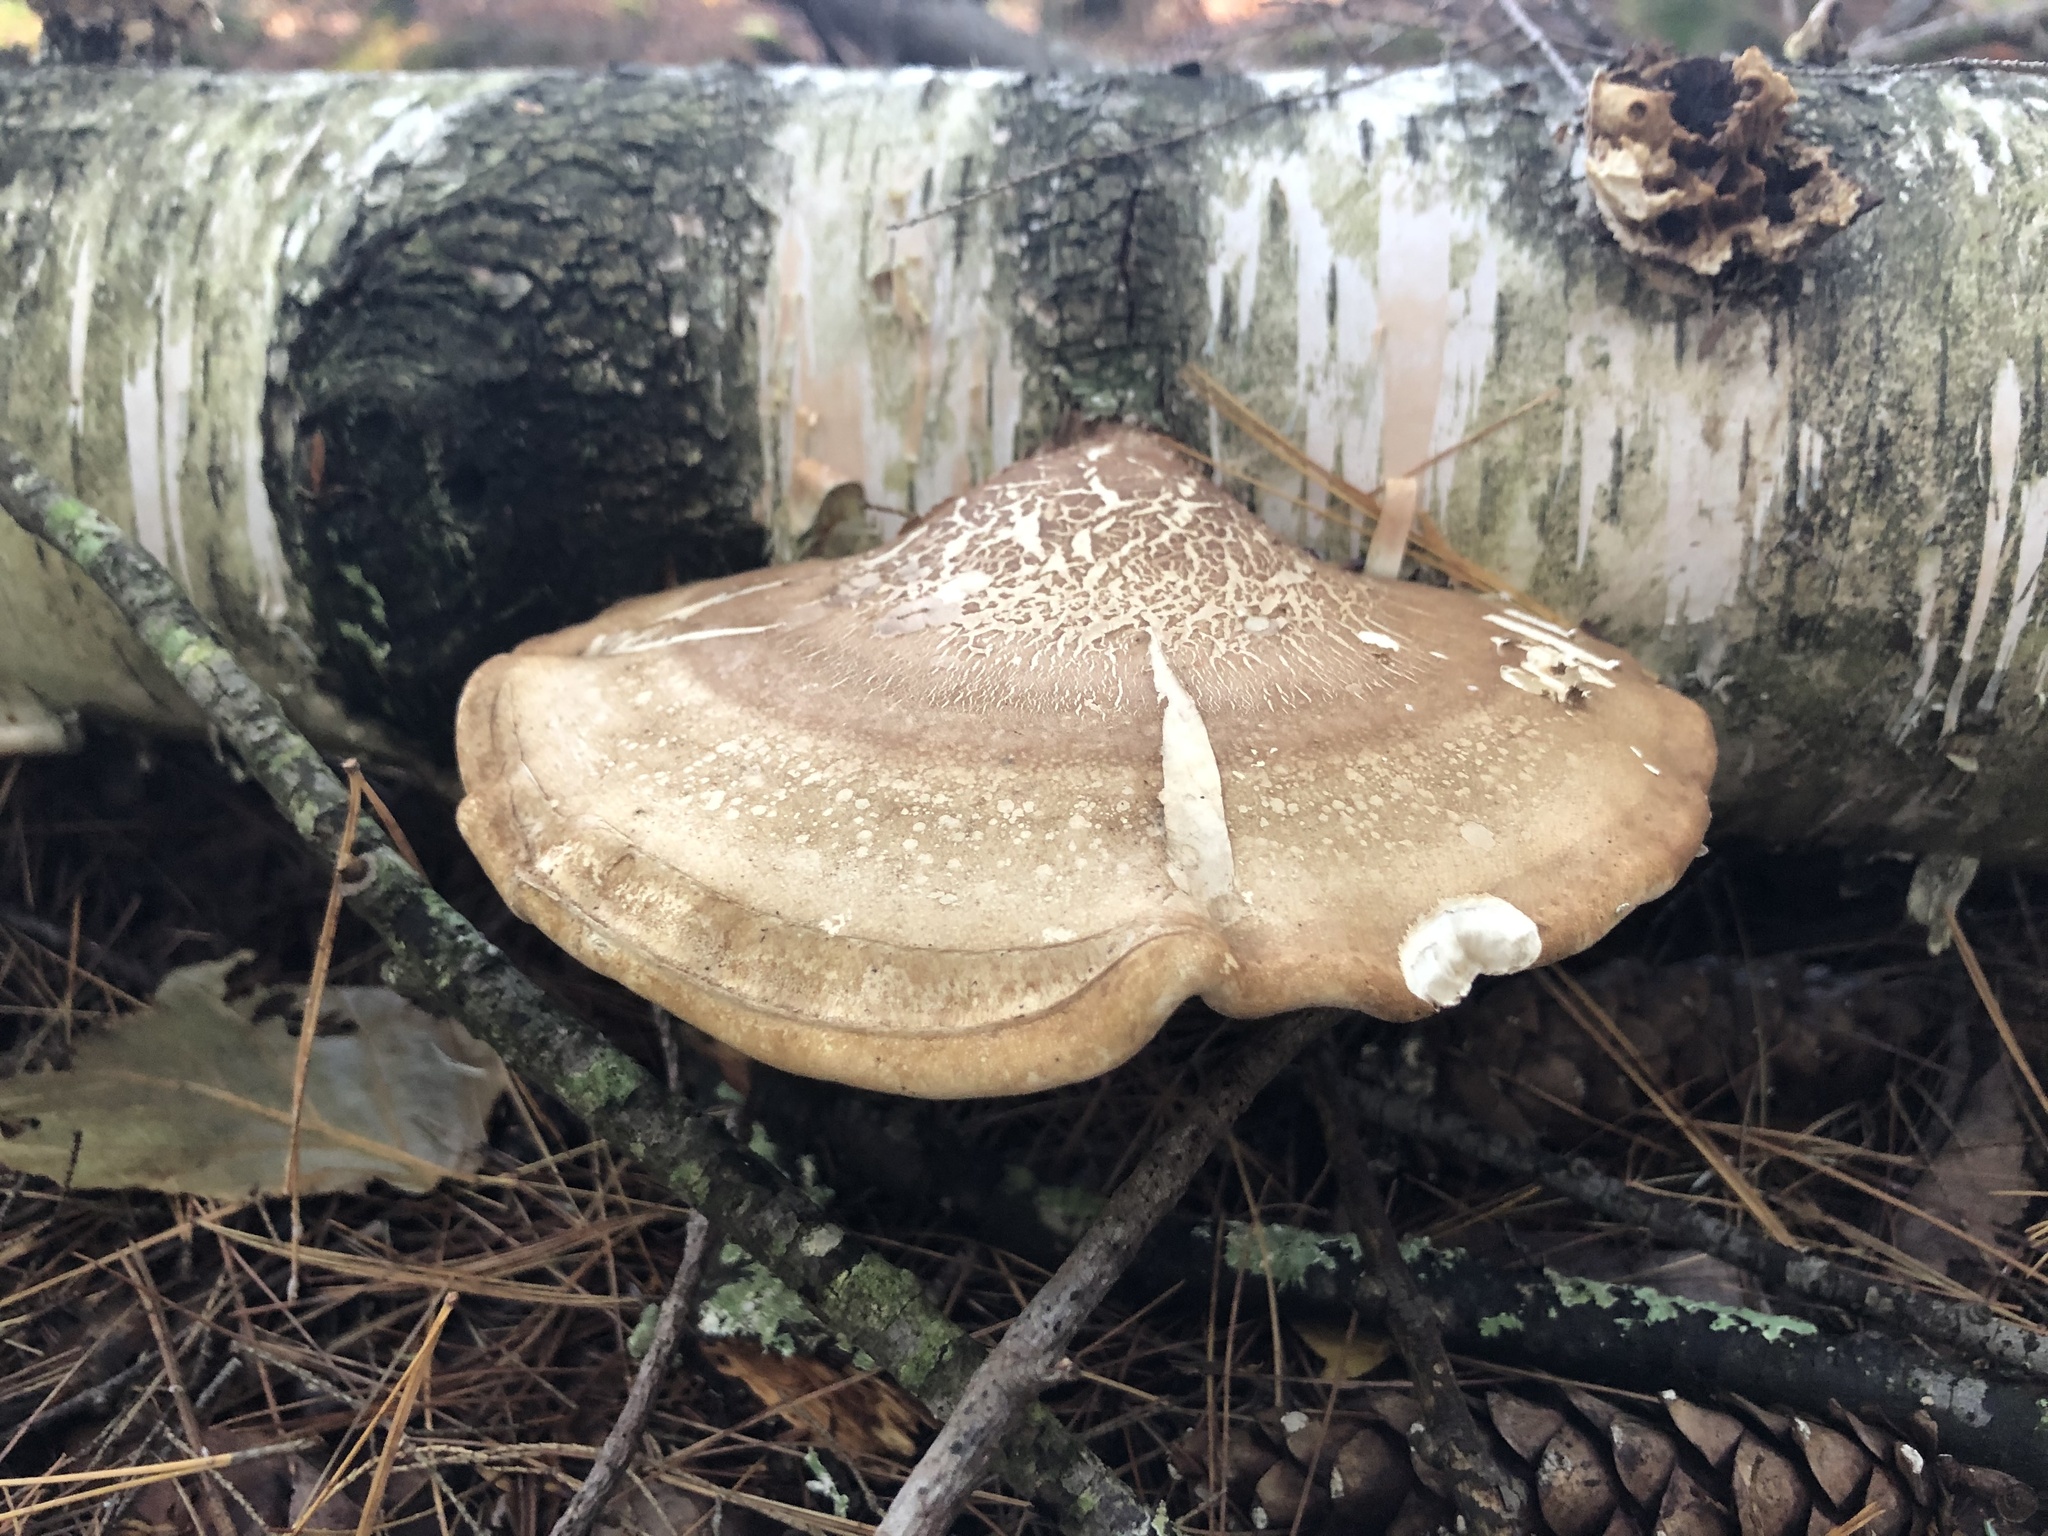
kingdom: Fungi
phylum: Basidiomycota
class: Agaricomycetes
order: Polyporales
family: Fomitopsidaceae
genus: Fomitopsis
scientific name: Fomitopsis betulina
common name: Birch polypore
